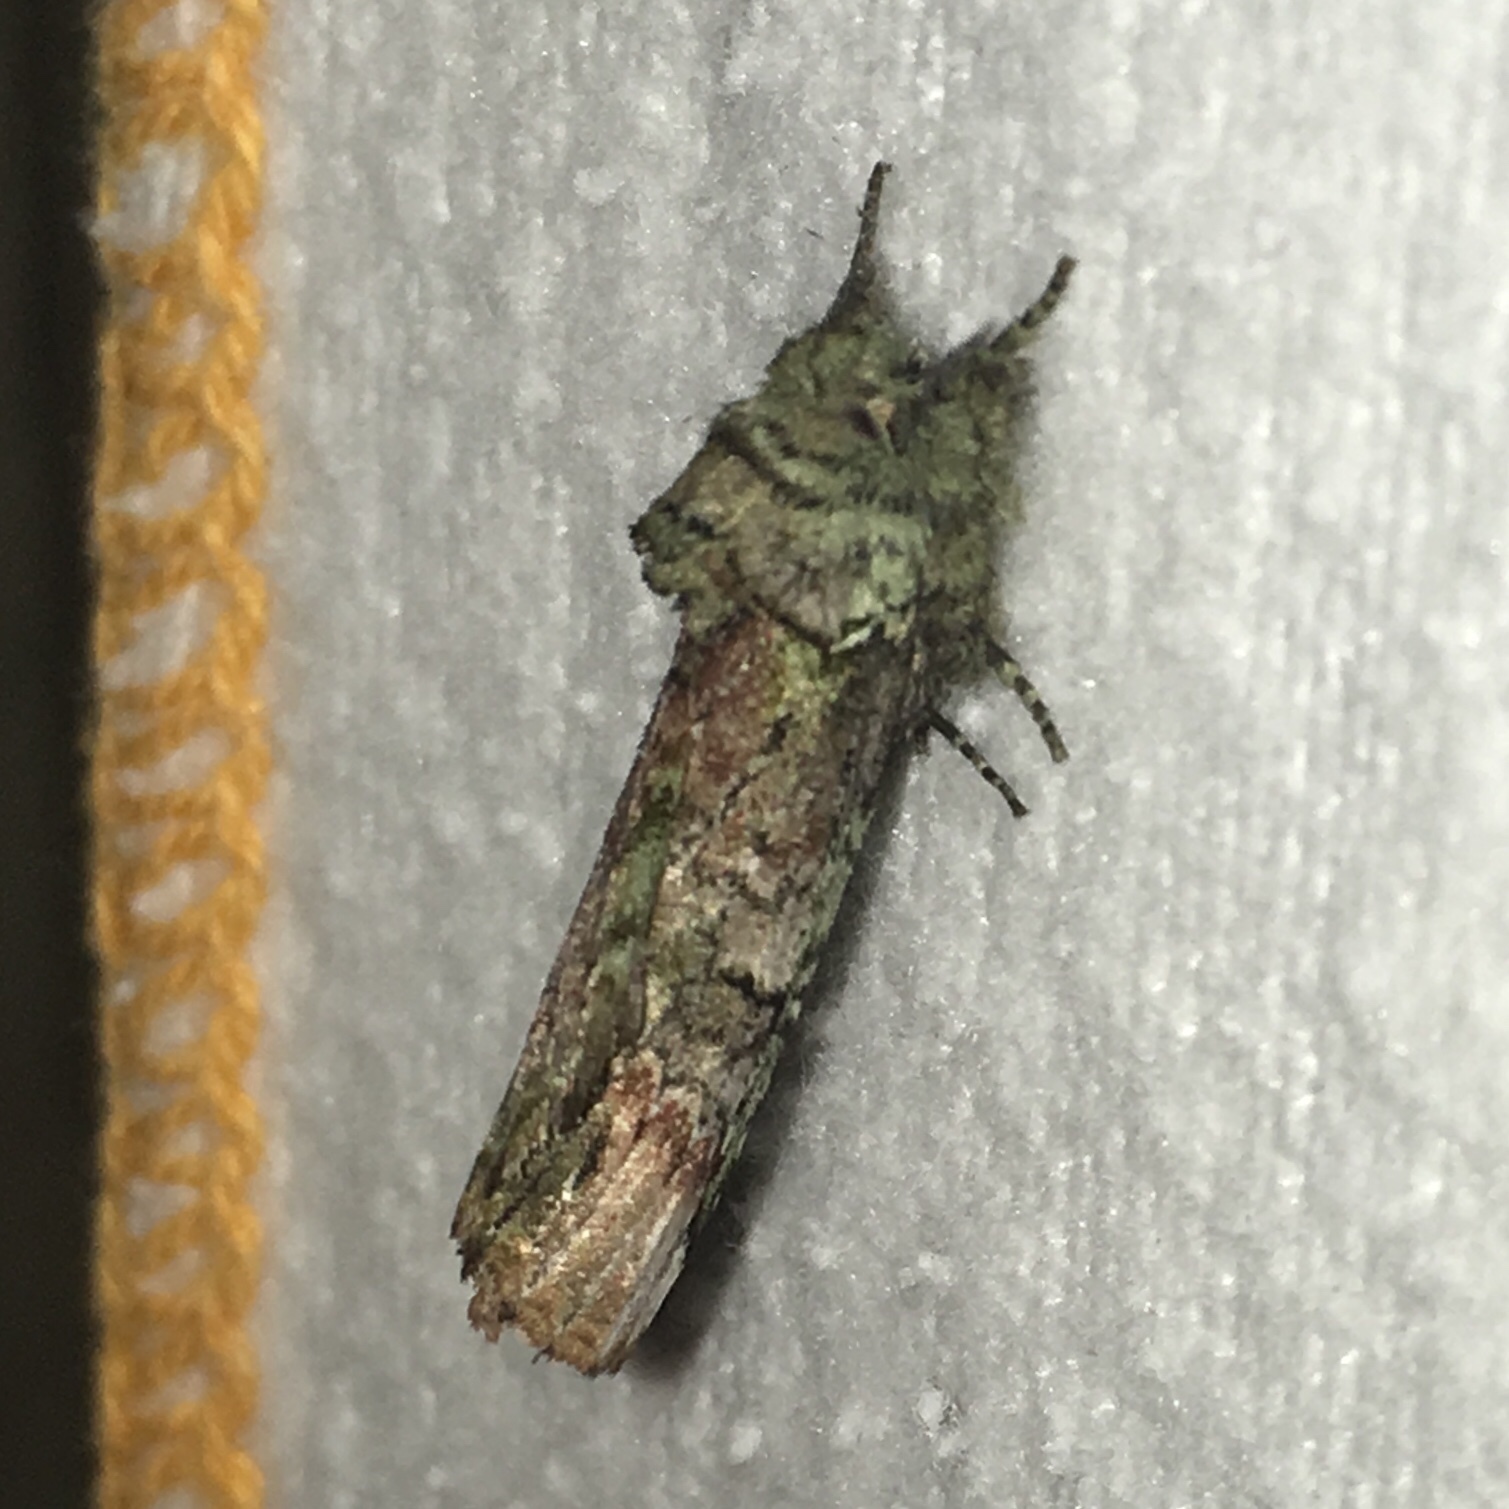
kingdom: Animalia
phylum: Arthropoda
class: Insecta
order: Lepidoptera
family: Notodontidae
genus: Schizura
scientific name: Schizura
